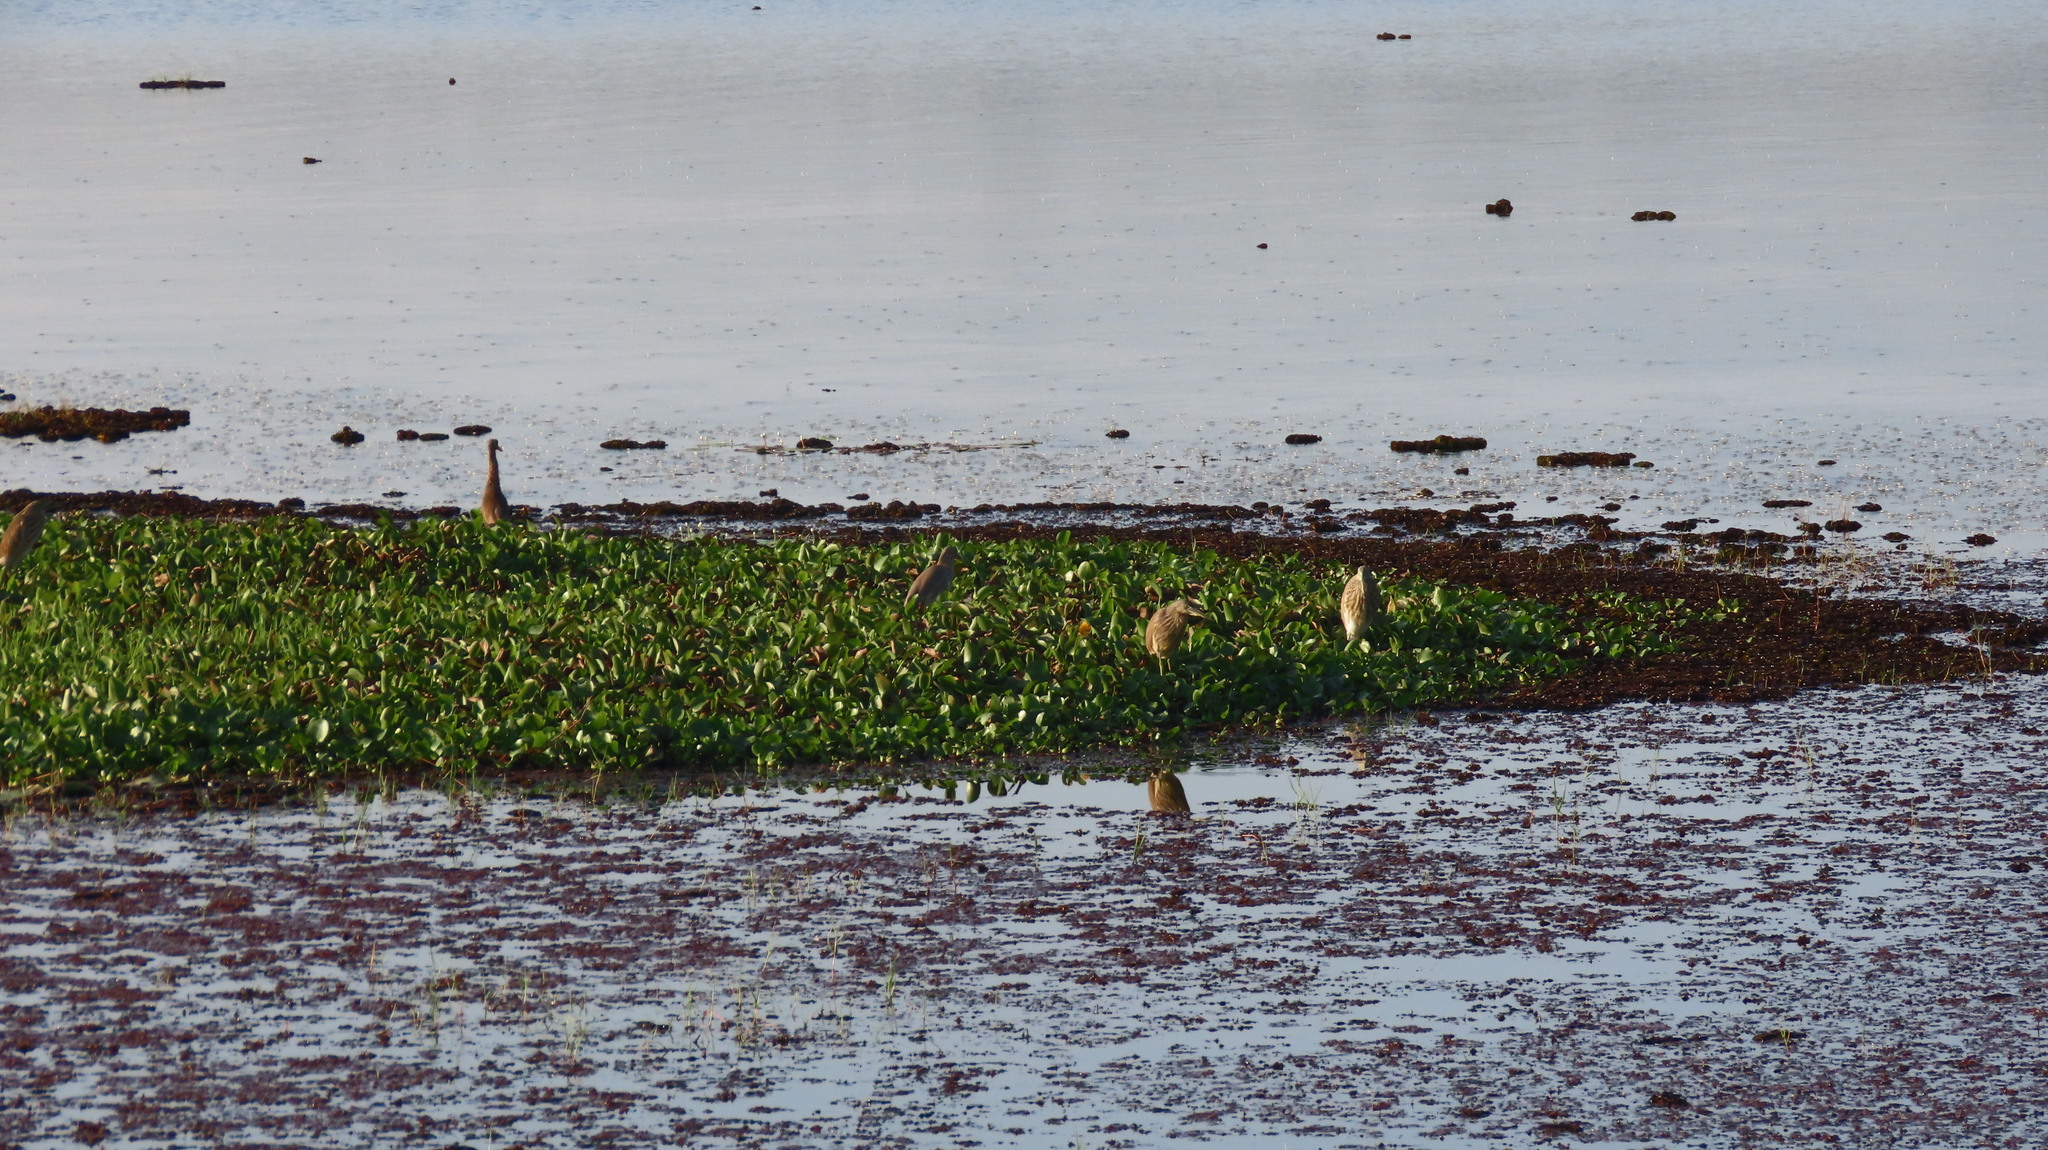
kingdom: Animalia
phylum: Chordata
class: Aves
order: Pelecaniformes
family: Ardeidae
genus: Ardeola
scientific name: Ardeola grayii
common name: Indian pond heron
